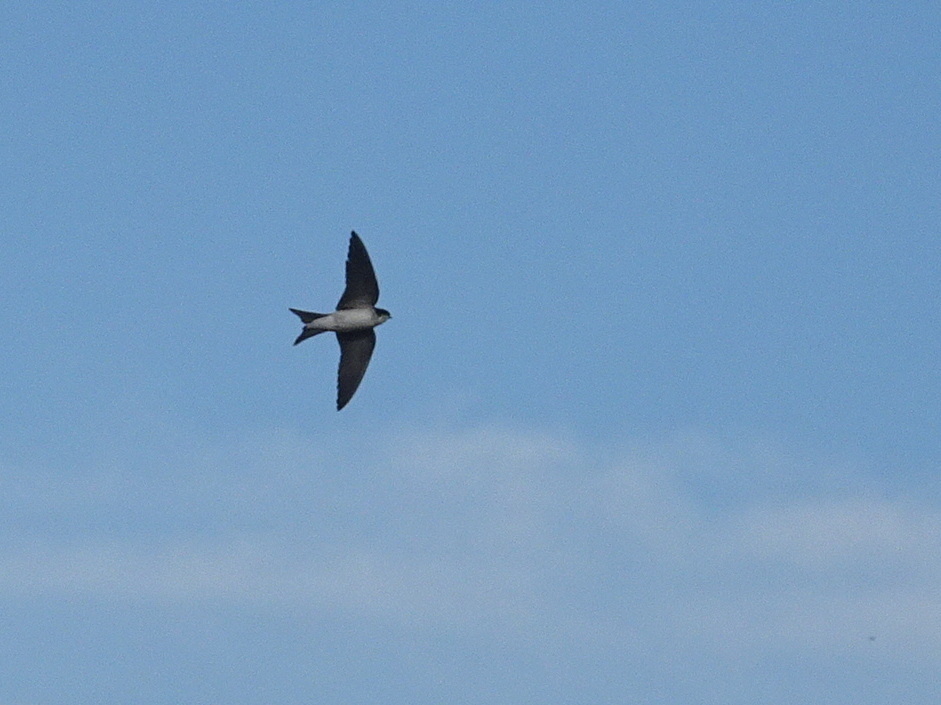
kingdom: Animalia
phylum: Chordata
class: Aves
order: Passeriformes
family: Hirundinidae
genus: Delichon
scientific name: Delichon urbicum
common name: Common house martin
